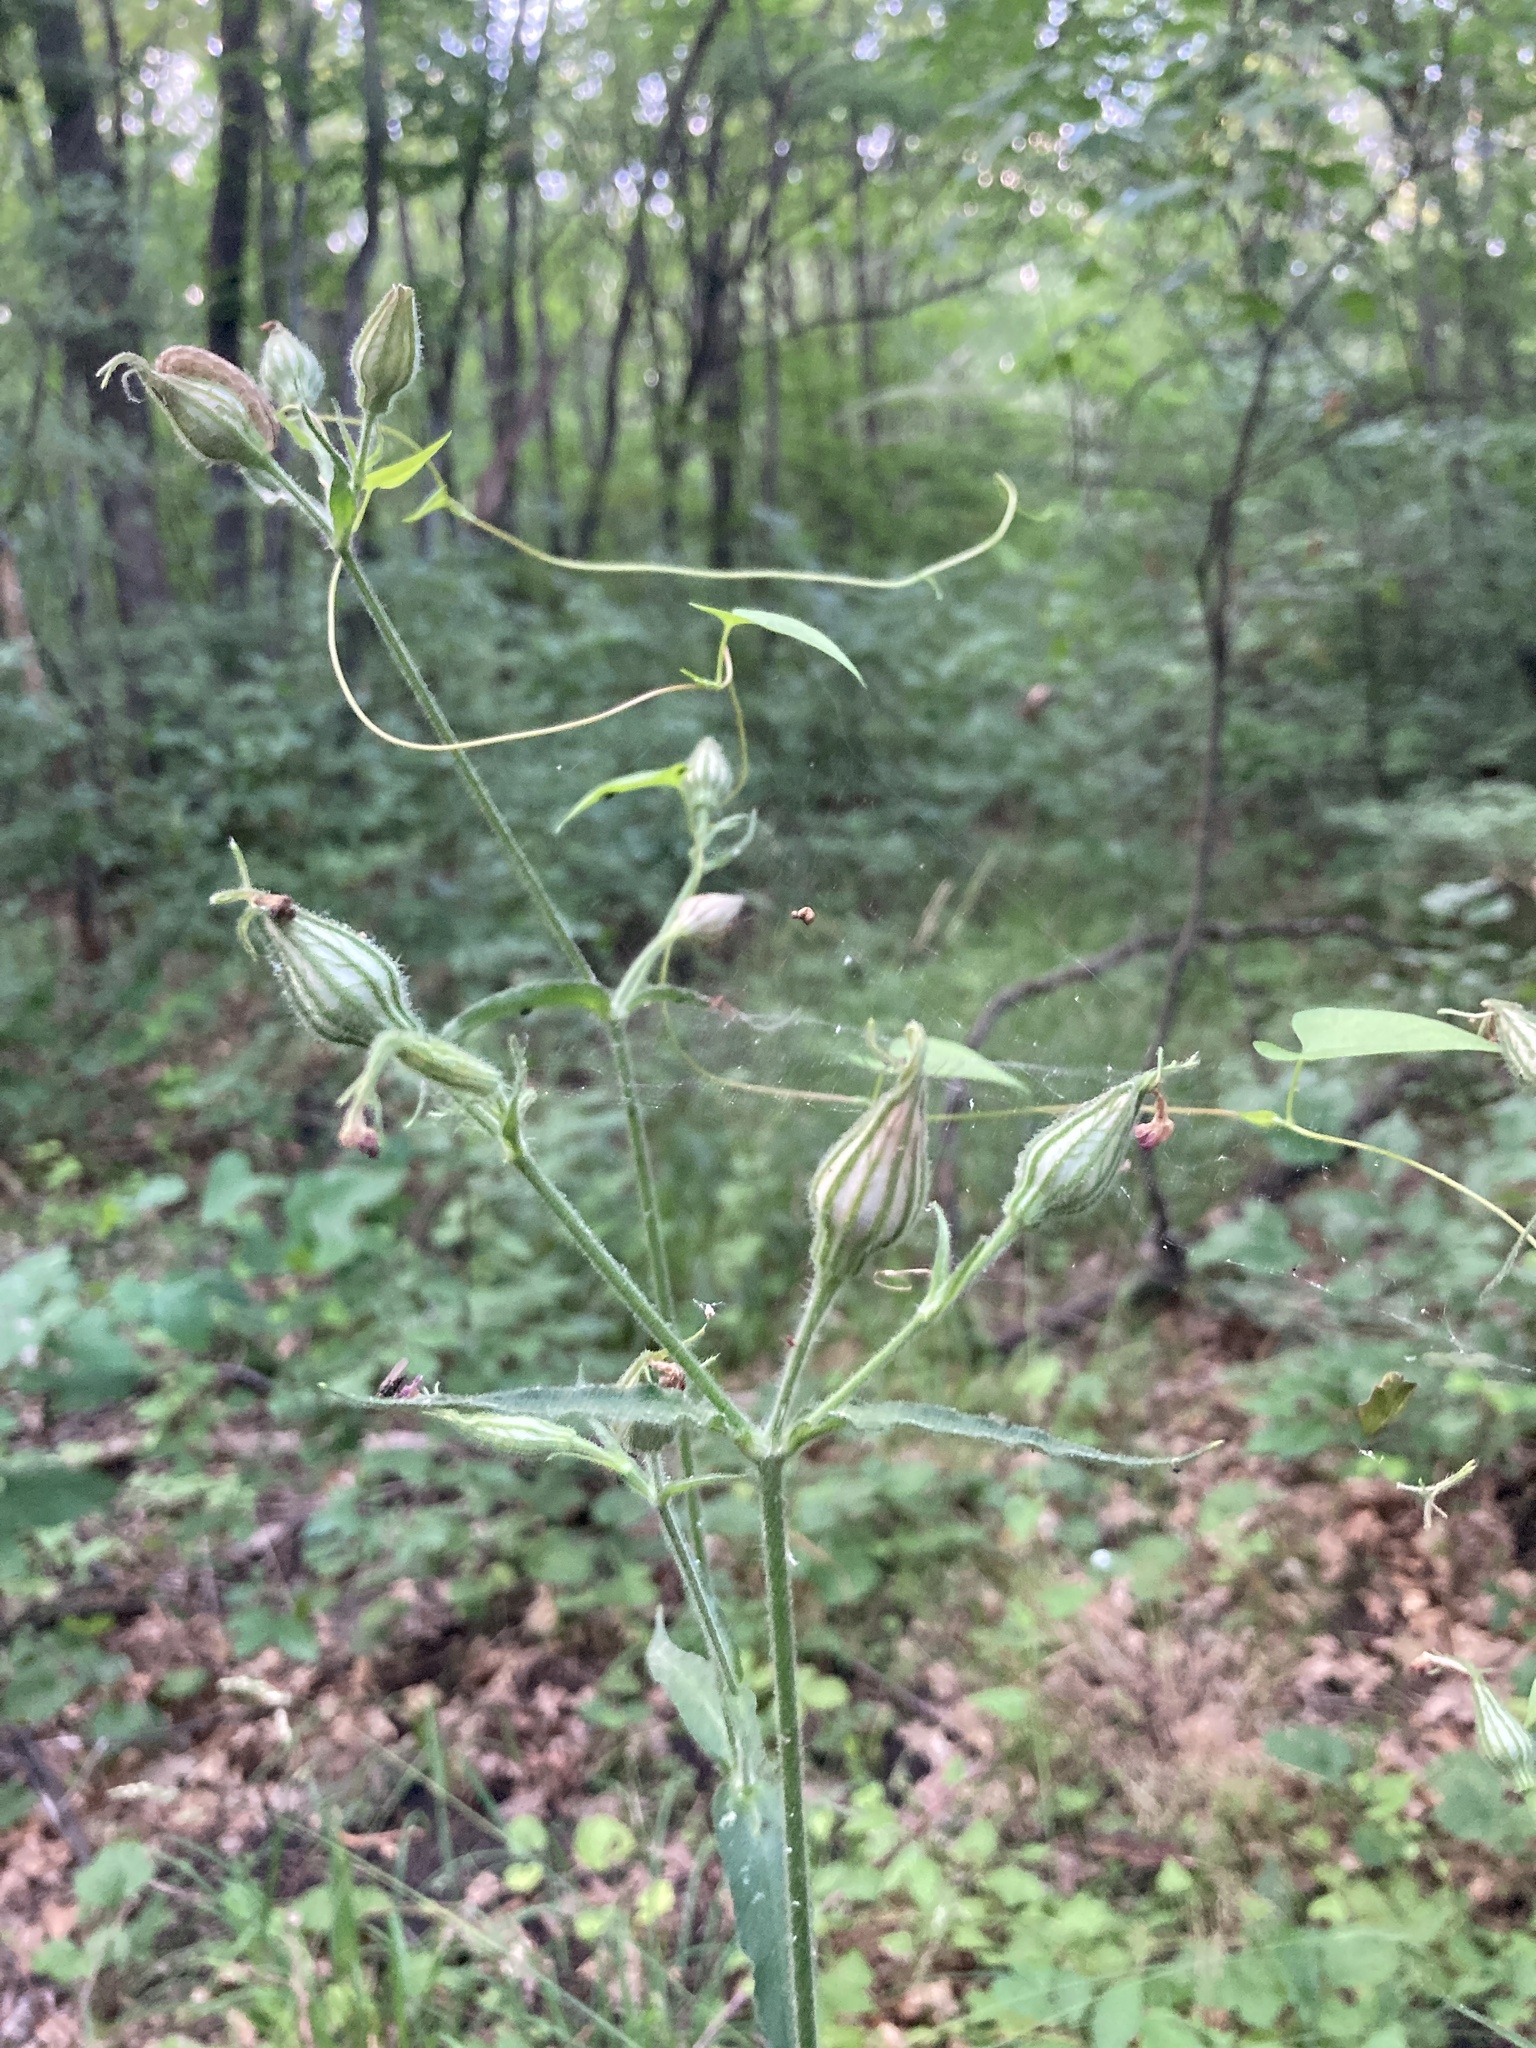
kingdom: Plantae
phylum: Tracheophyta
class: Magnoliopsida
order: Caryophyllales
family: Caryophyllaceae
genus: Silene
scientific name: Silene noctiflora
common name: Night-flowering catchfly
